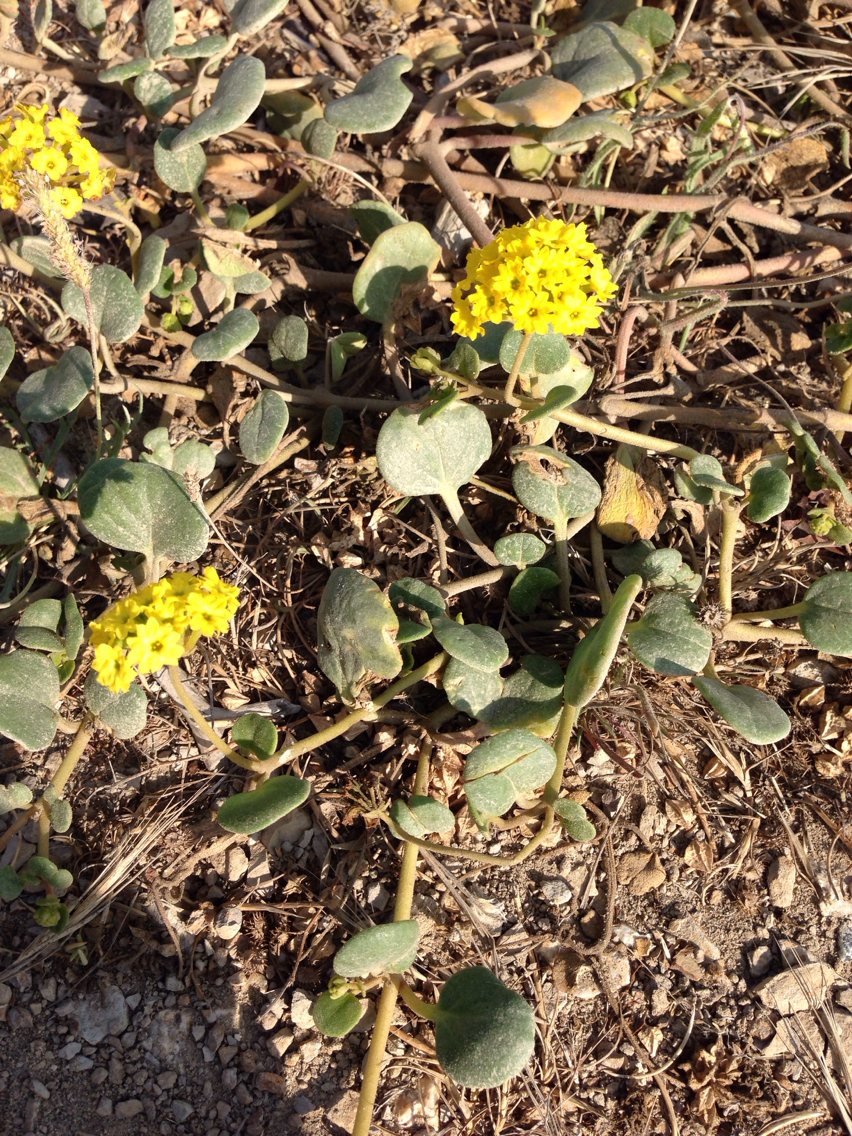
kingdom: Plantae
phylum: Tracheophyta
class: Magnoliopsida
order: Caryophyllales
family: Nyctaginaceae
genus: Abronia
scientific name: Abronia latifolia
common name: Yellow sand-verbena
